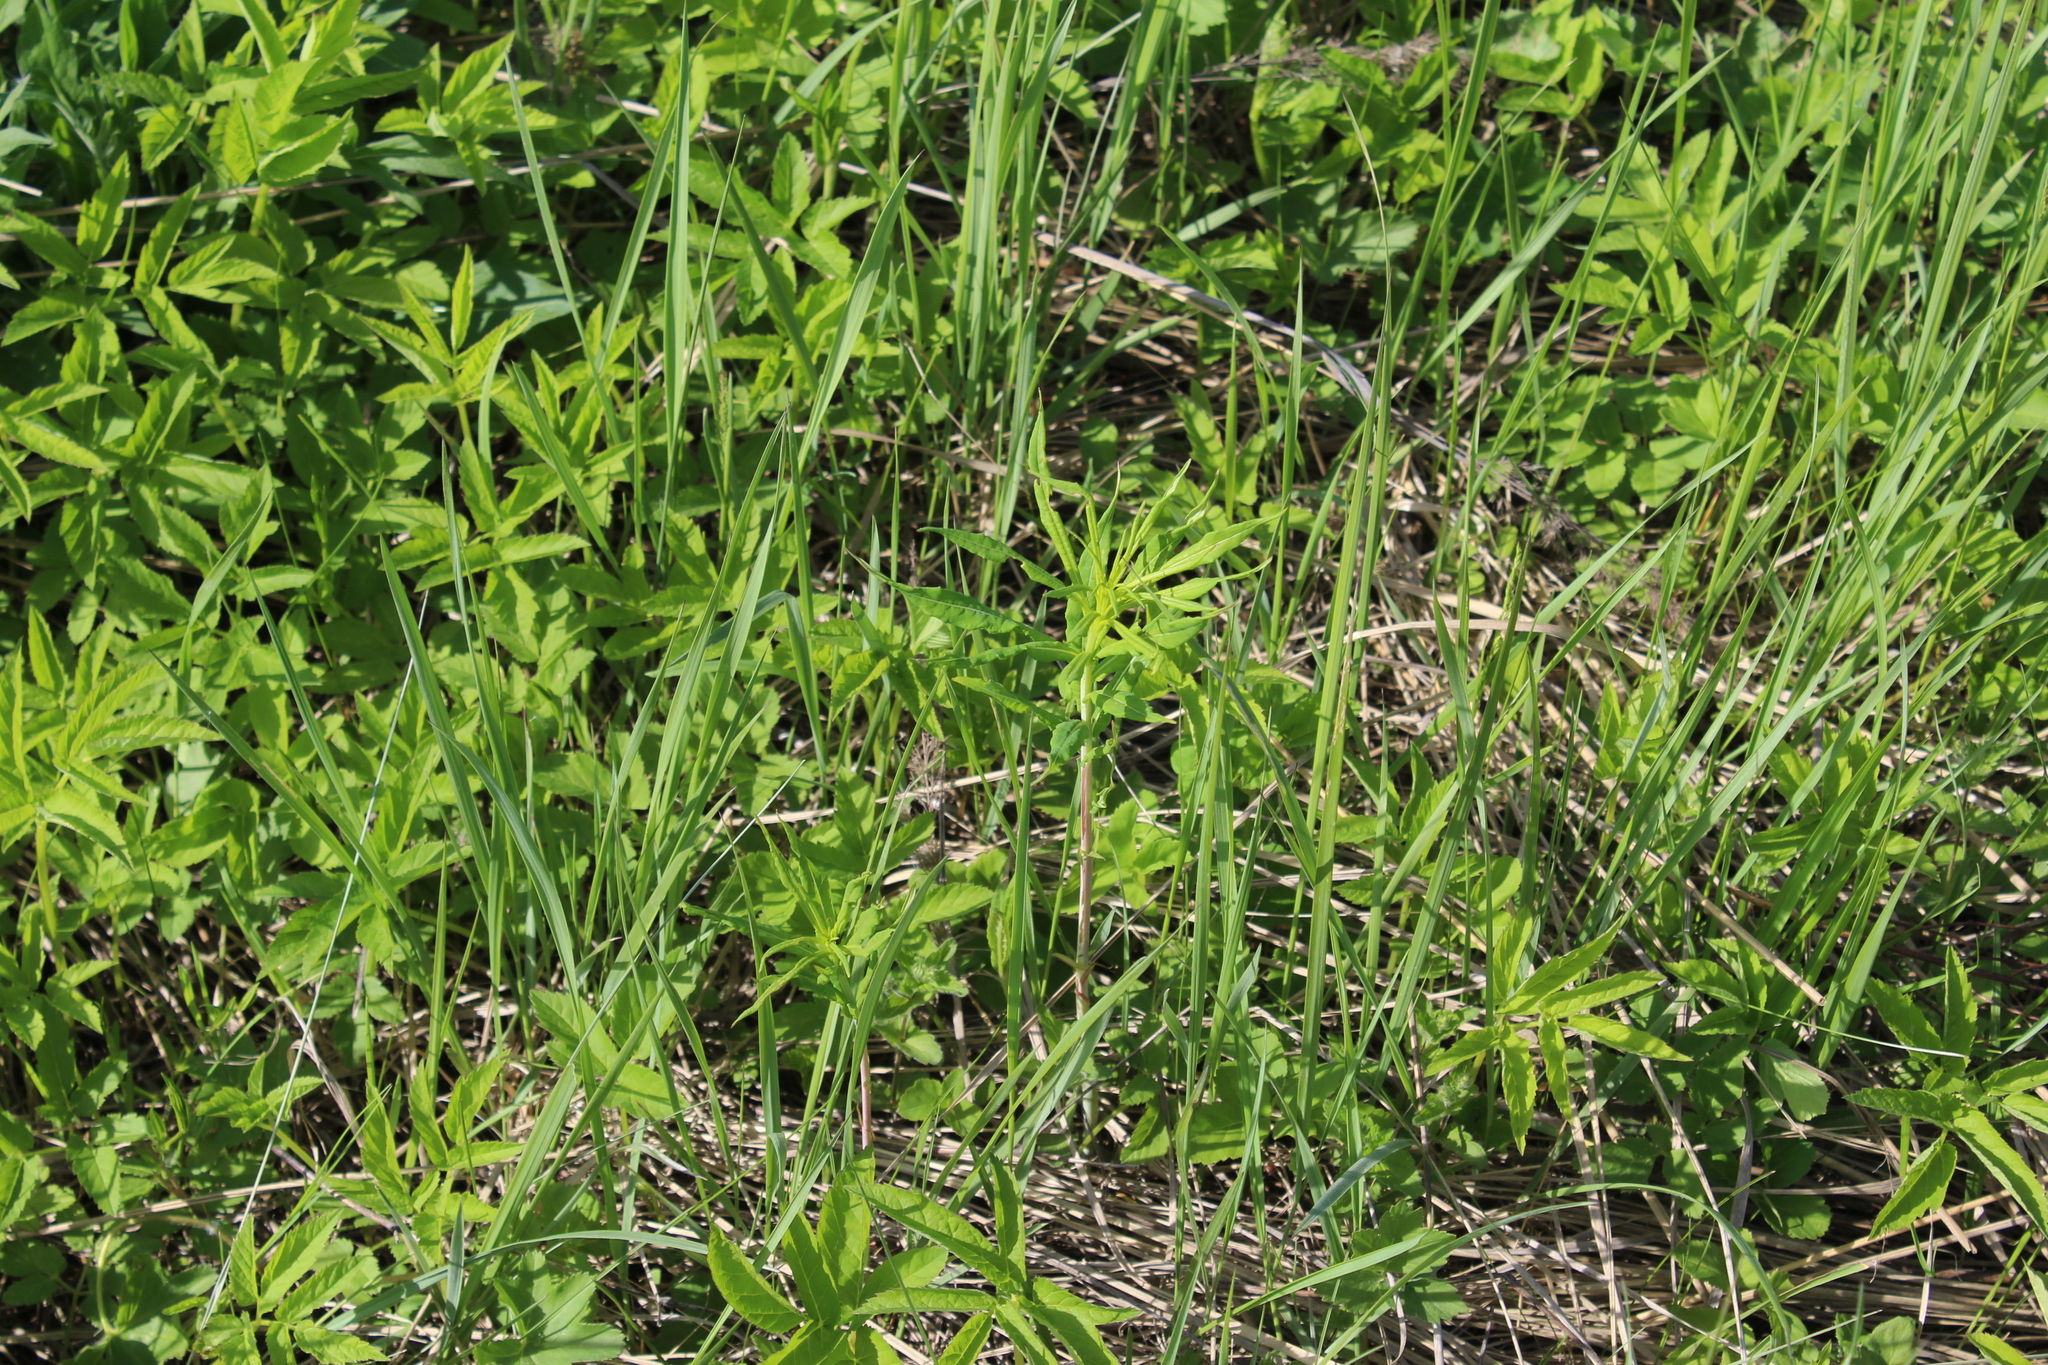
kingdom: Plantae
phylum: Tracheophyta
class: Magnoliopsida
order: Myrtales
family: Onagraceae
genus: Chamaenerion
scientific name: Chamaenerion angustifolium
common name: Fireweed
